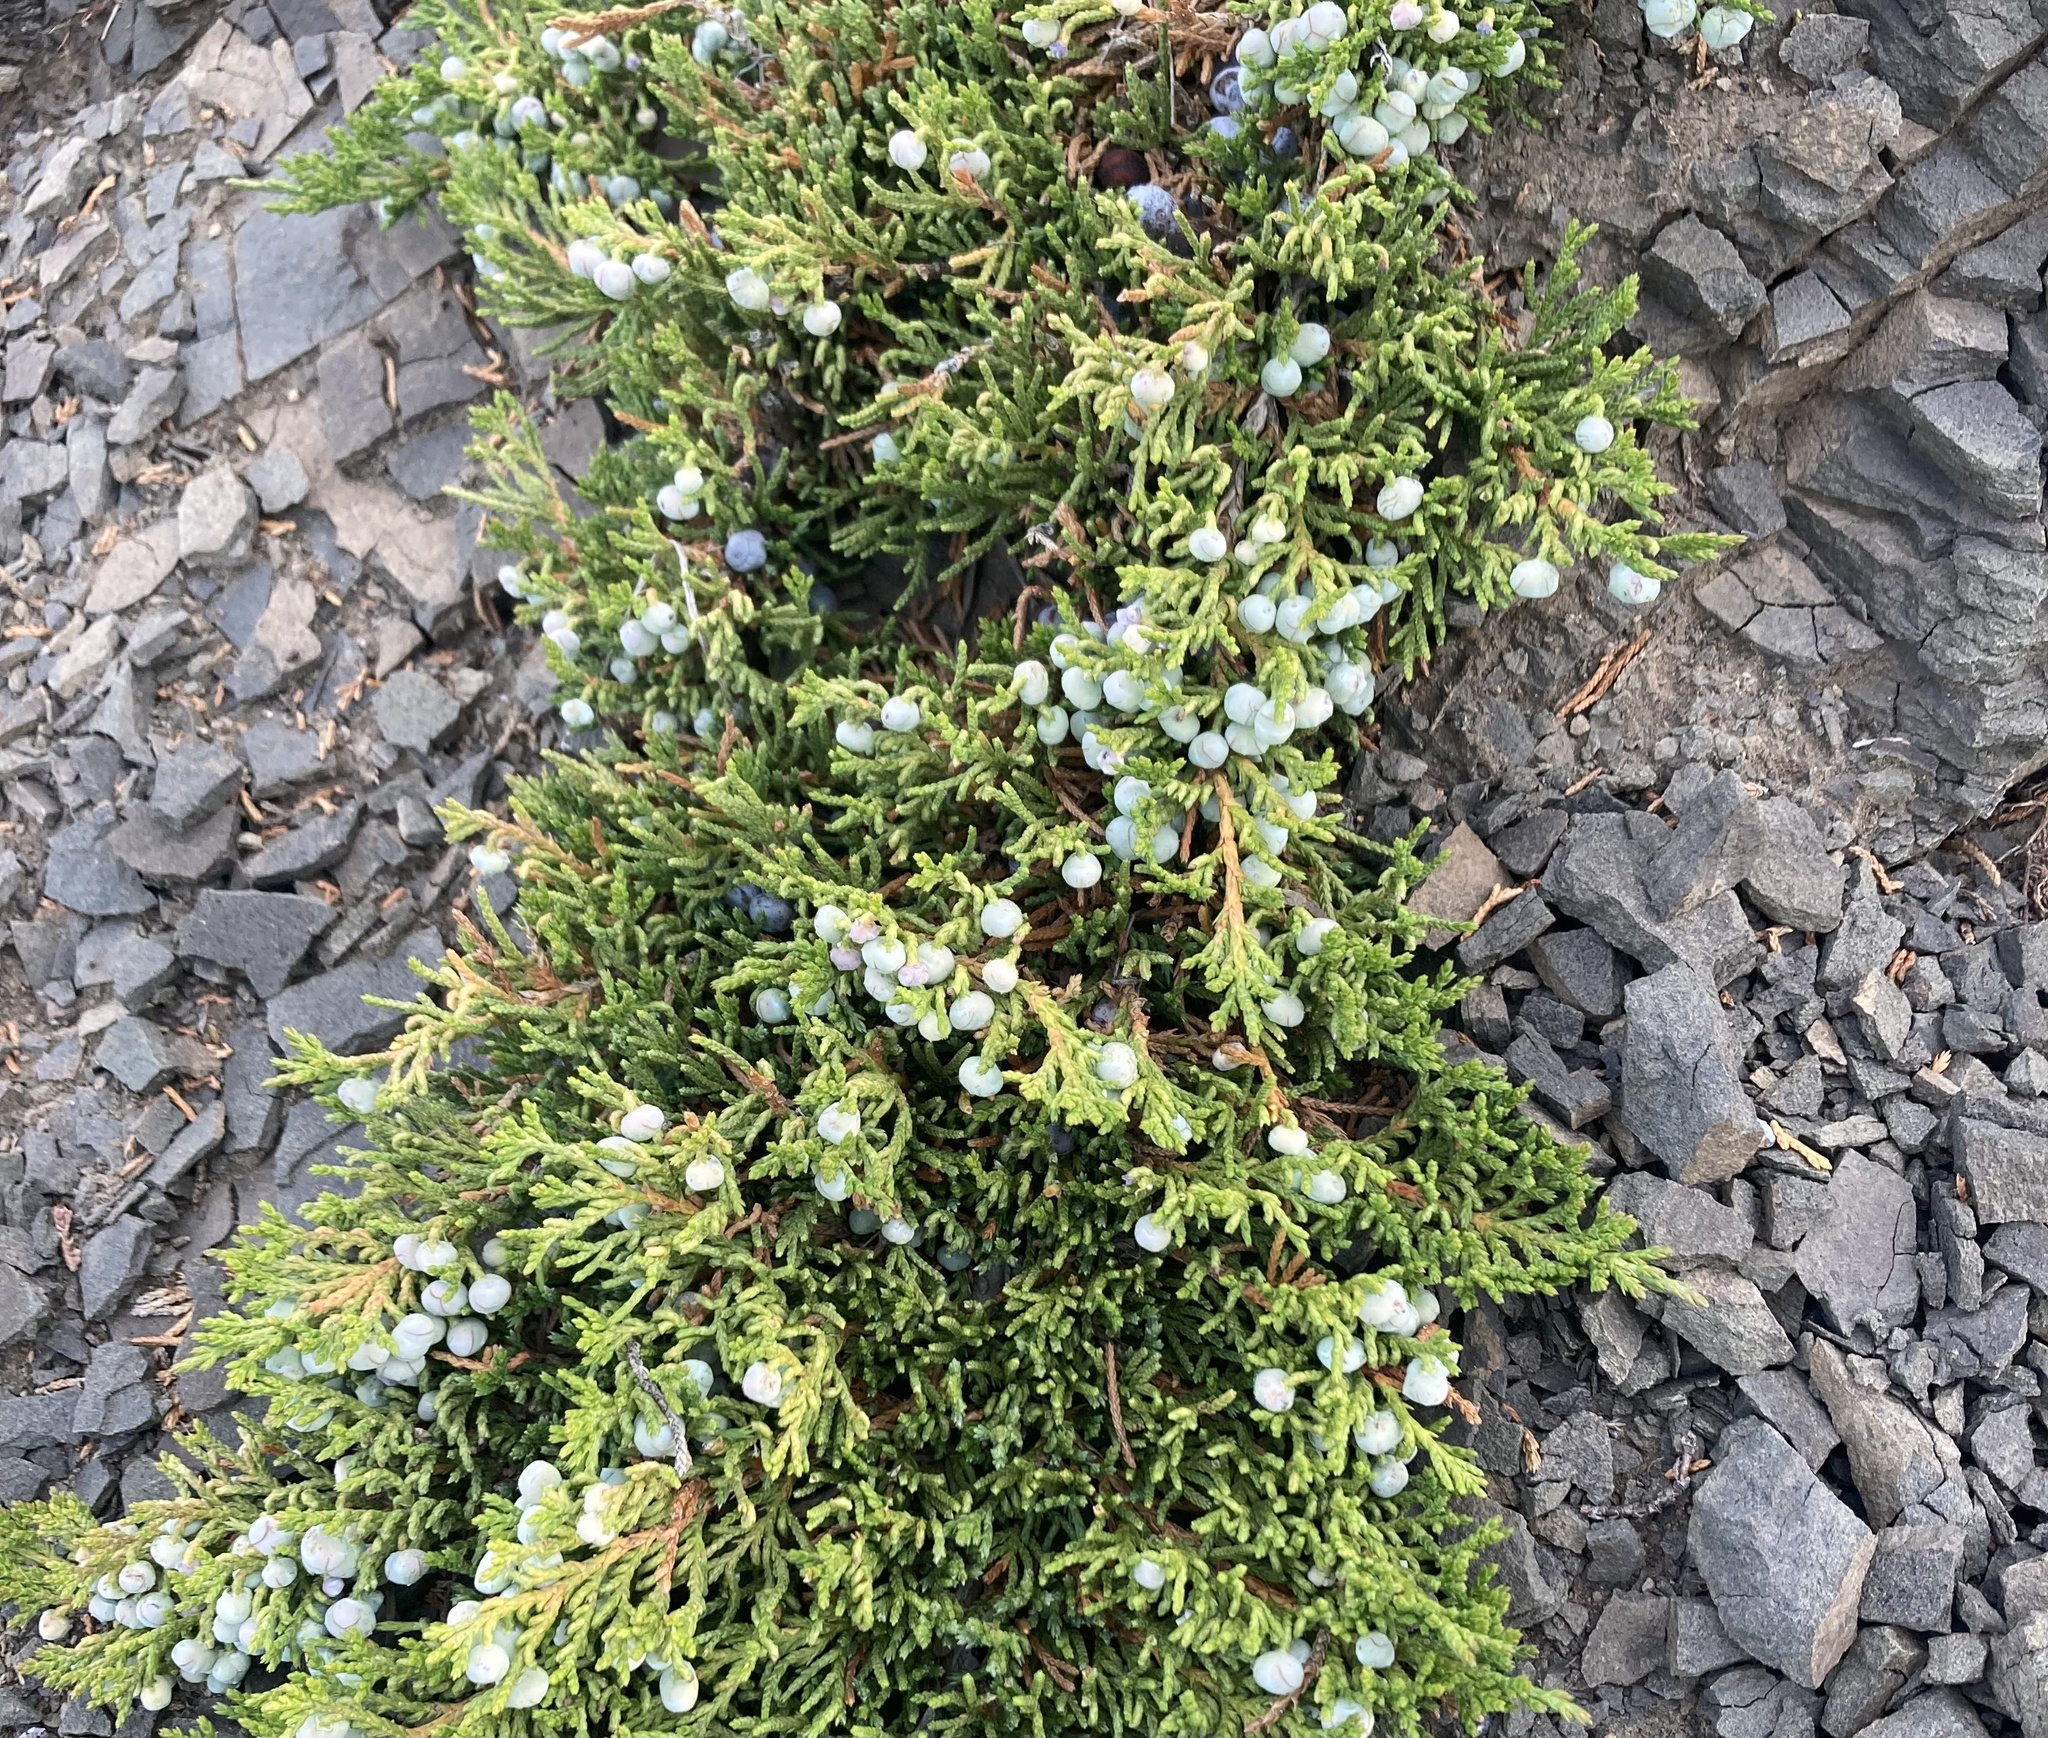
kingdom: Plantae
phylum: Tracheophyta
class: Pinopsida
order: Pinales
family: Cupressaceae
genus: Juniperus
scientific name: Juniperus horizontalis
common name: Creeping juniper
